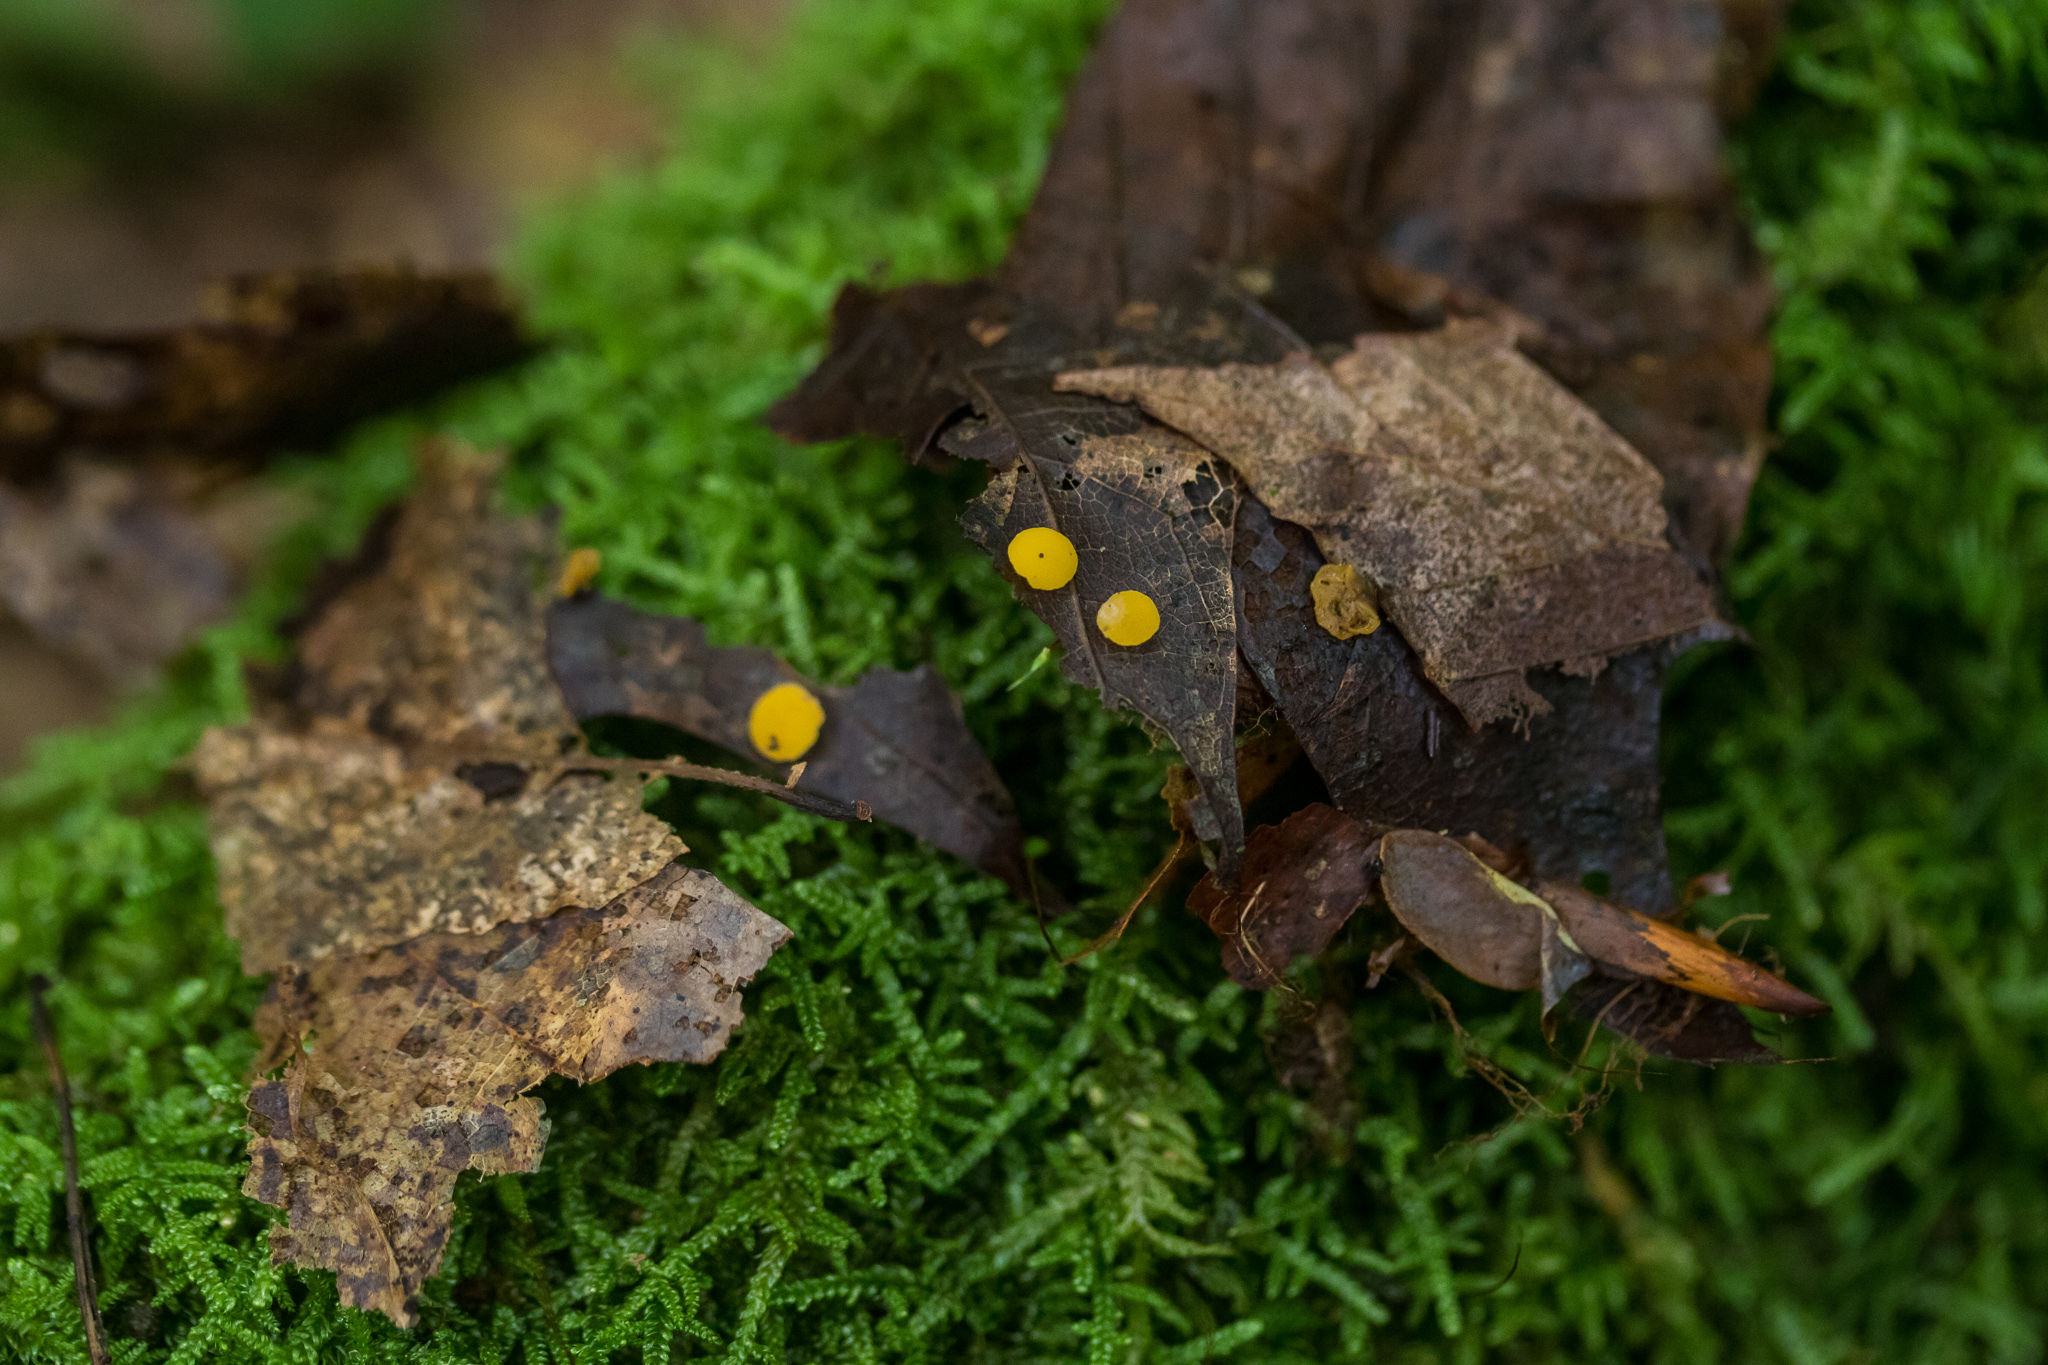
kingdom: Fungi
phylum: Ascomycota
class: Leotiomycetes
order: Helotiales
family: Helotiaceae
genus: Hymenoscyphus
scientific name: Hymenoscyphus epiphyllus
